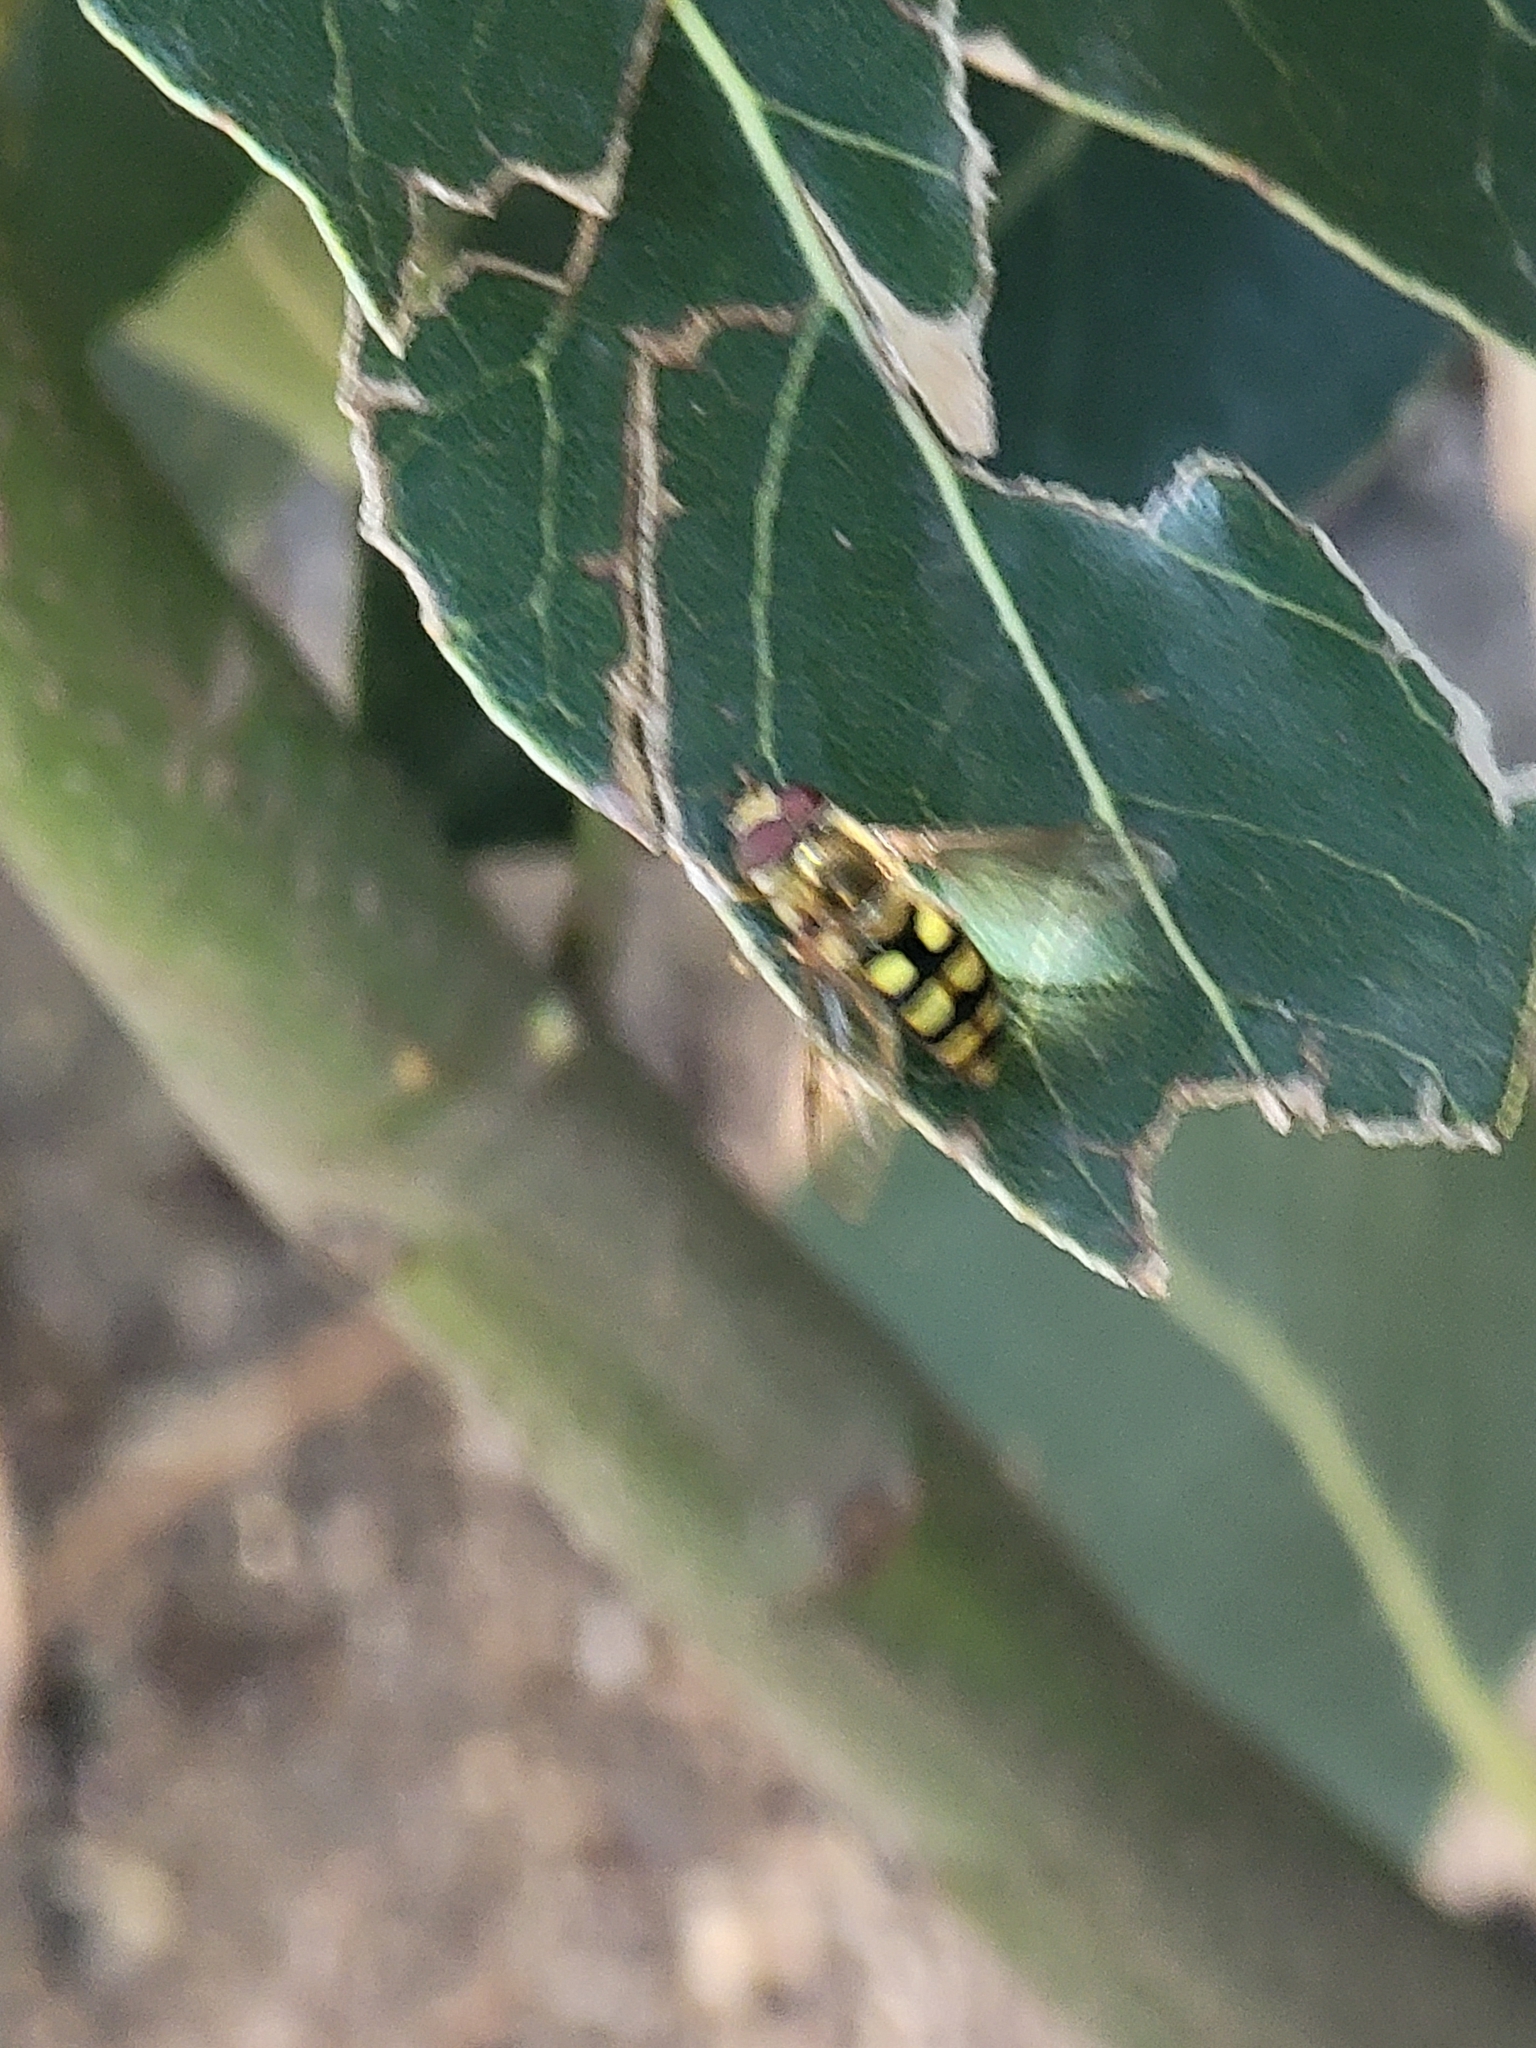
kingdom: Animalia
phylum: Arthropoda
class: Insecta
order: Diptera
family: Syrphidae
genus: Eupeodes
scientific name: Eupeodes fumipennis
